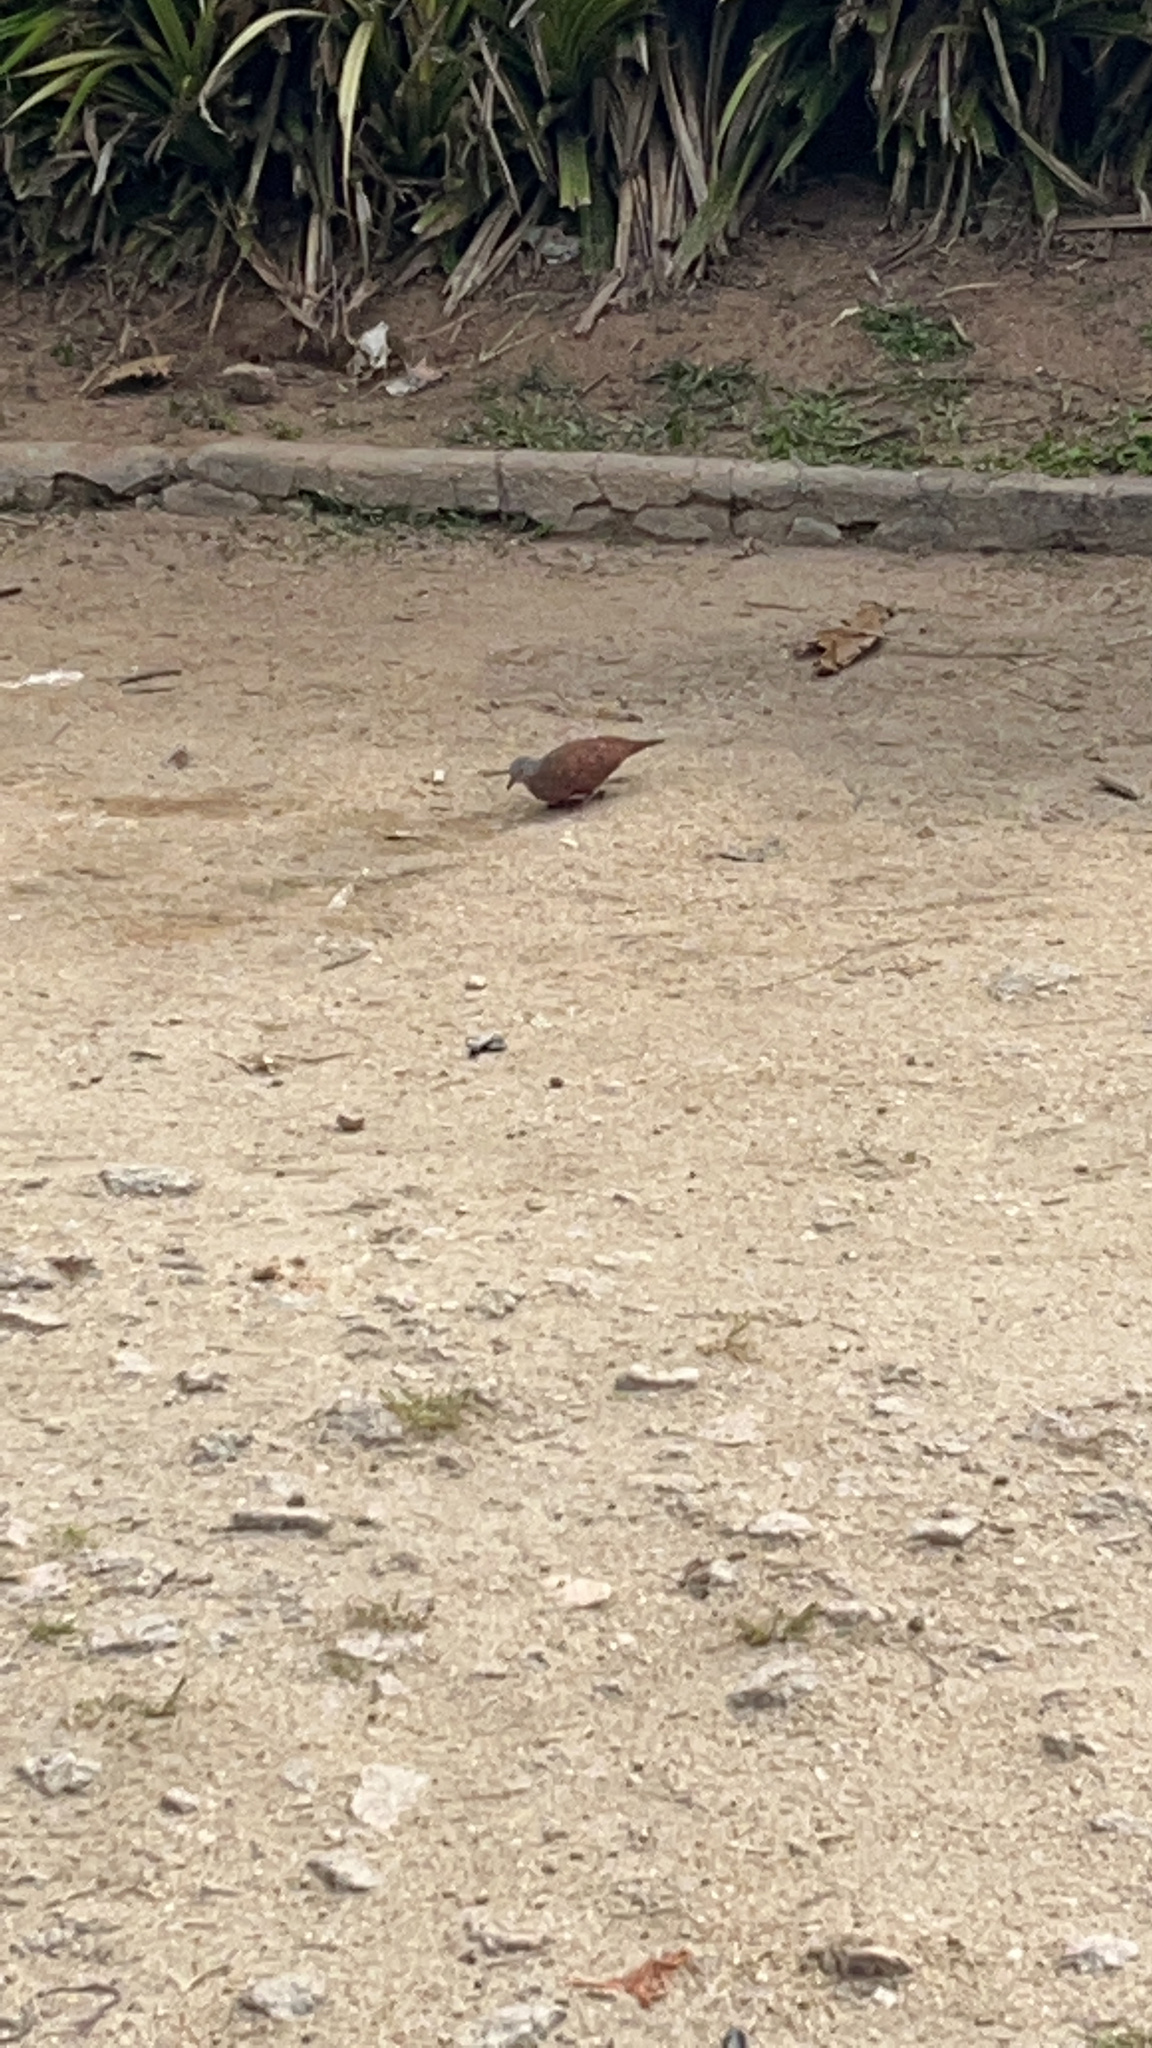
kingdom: Animalia
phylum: Chordata
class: Aves
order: Columbiformes
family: Columbidae
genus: Columbina
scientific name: Columbina talpacoti
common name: Ruddy ground dove
